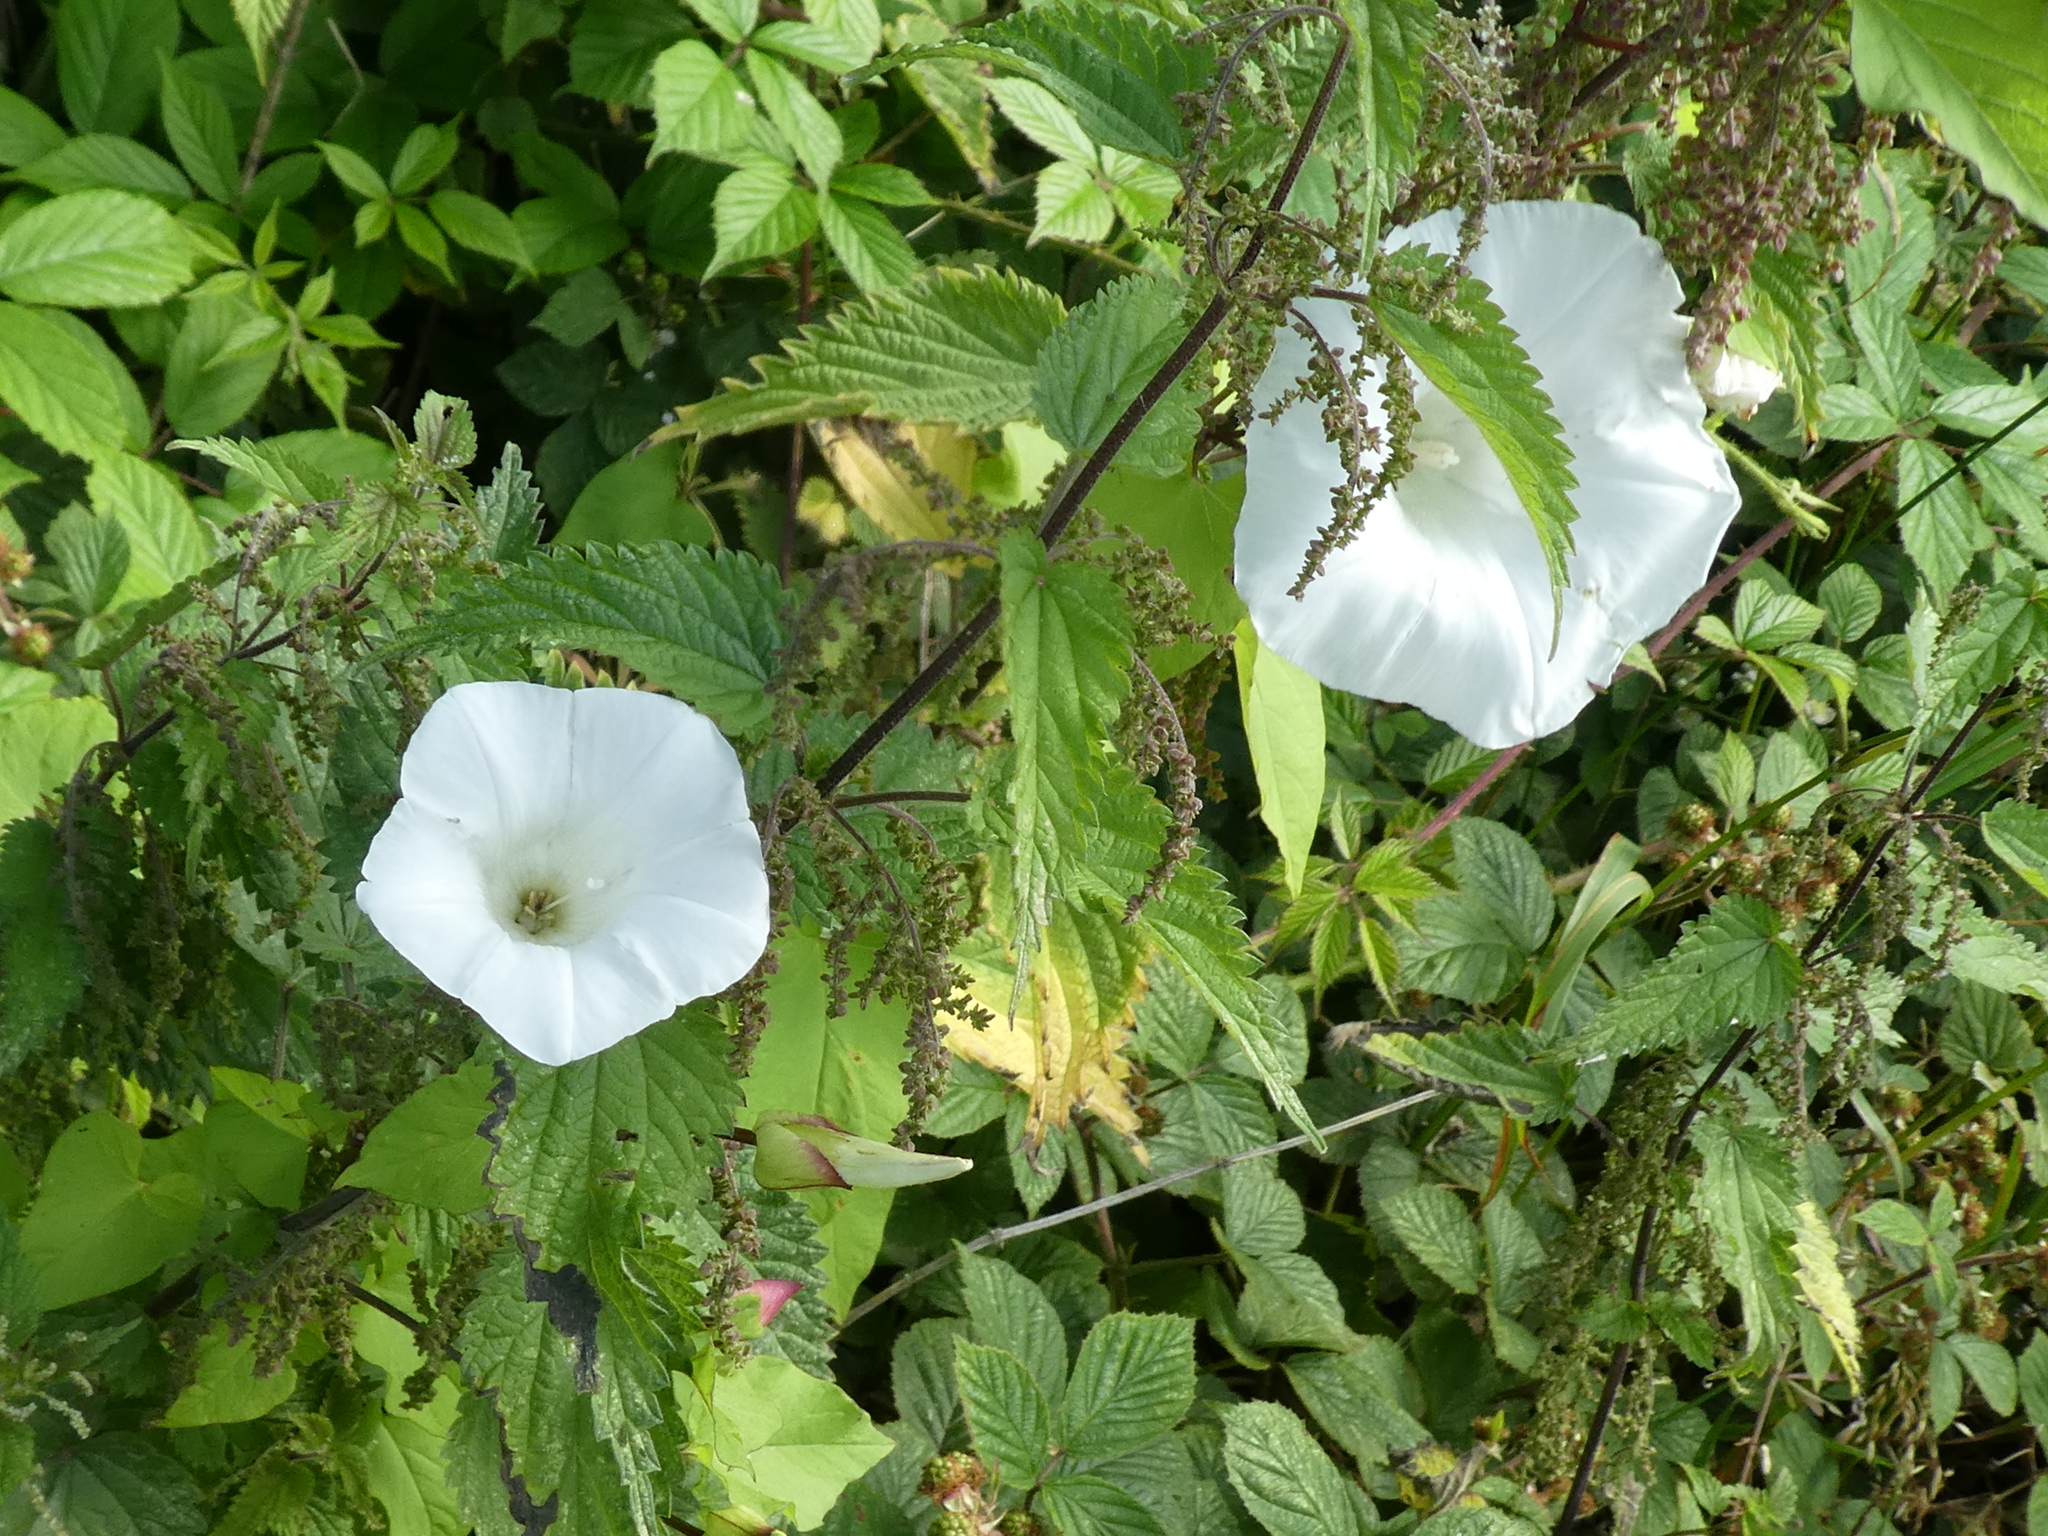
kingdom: Plantae
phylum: Tracheophyta
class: Magnoliopsida
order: Solanales
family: Convolvulaceae
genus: Calystegia
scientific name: Calystegia sepium
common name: Hedge bindweed
